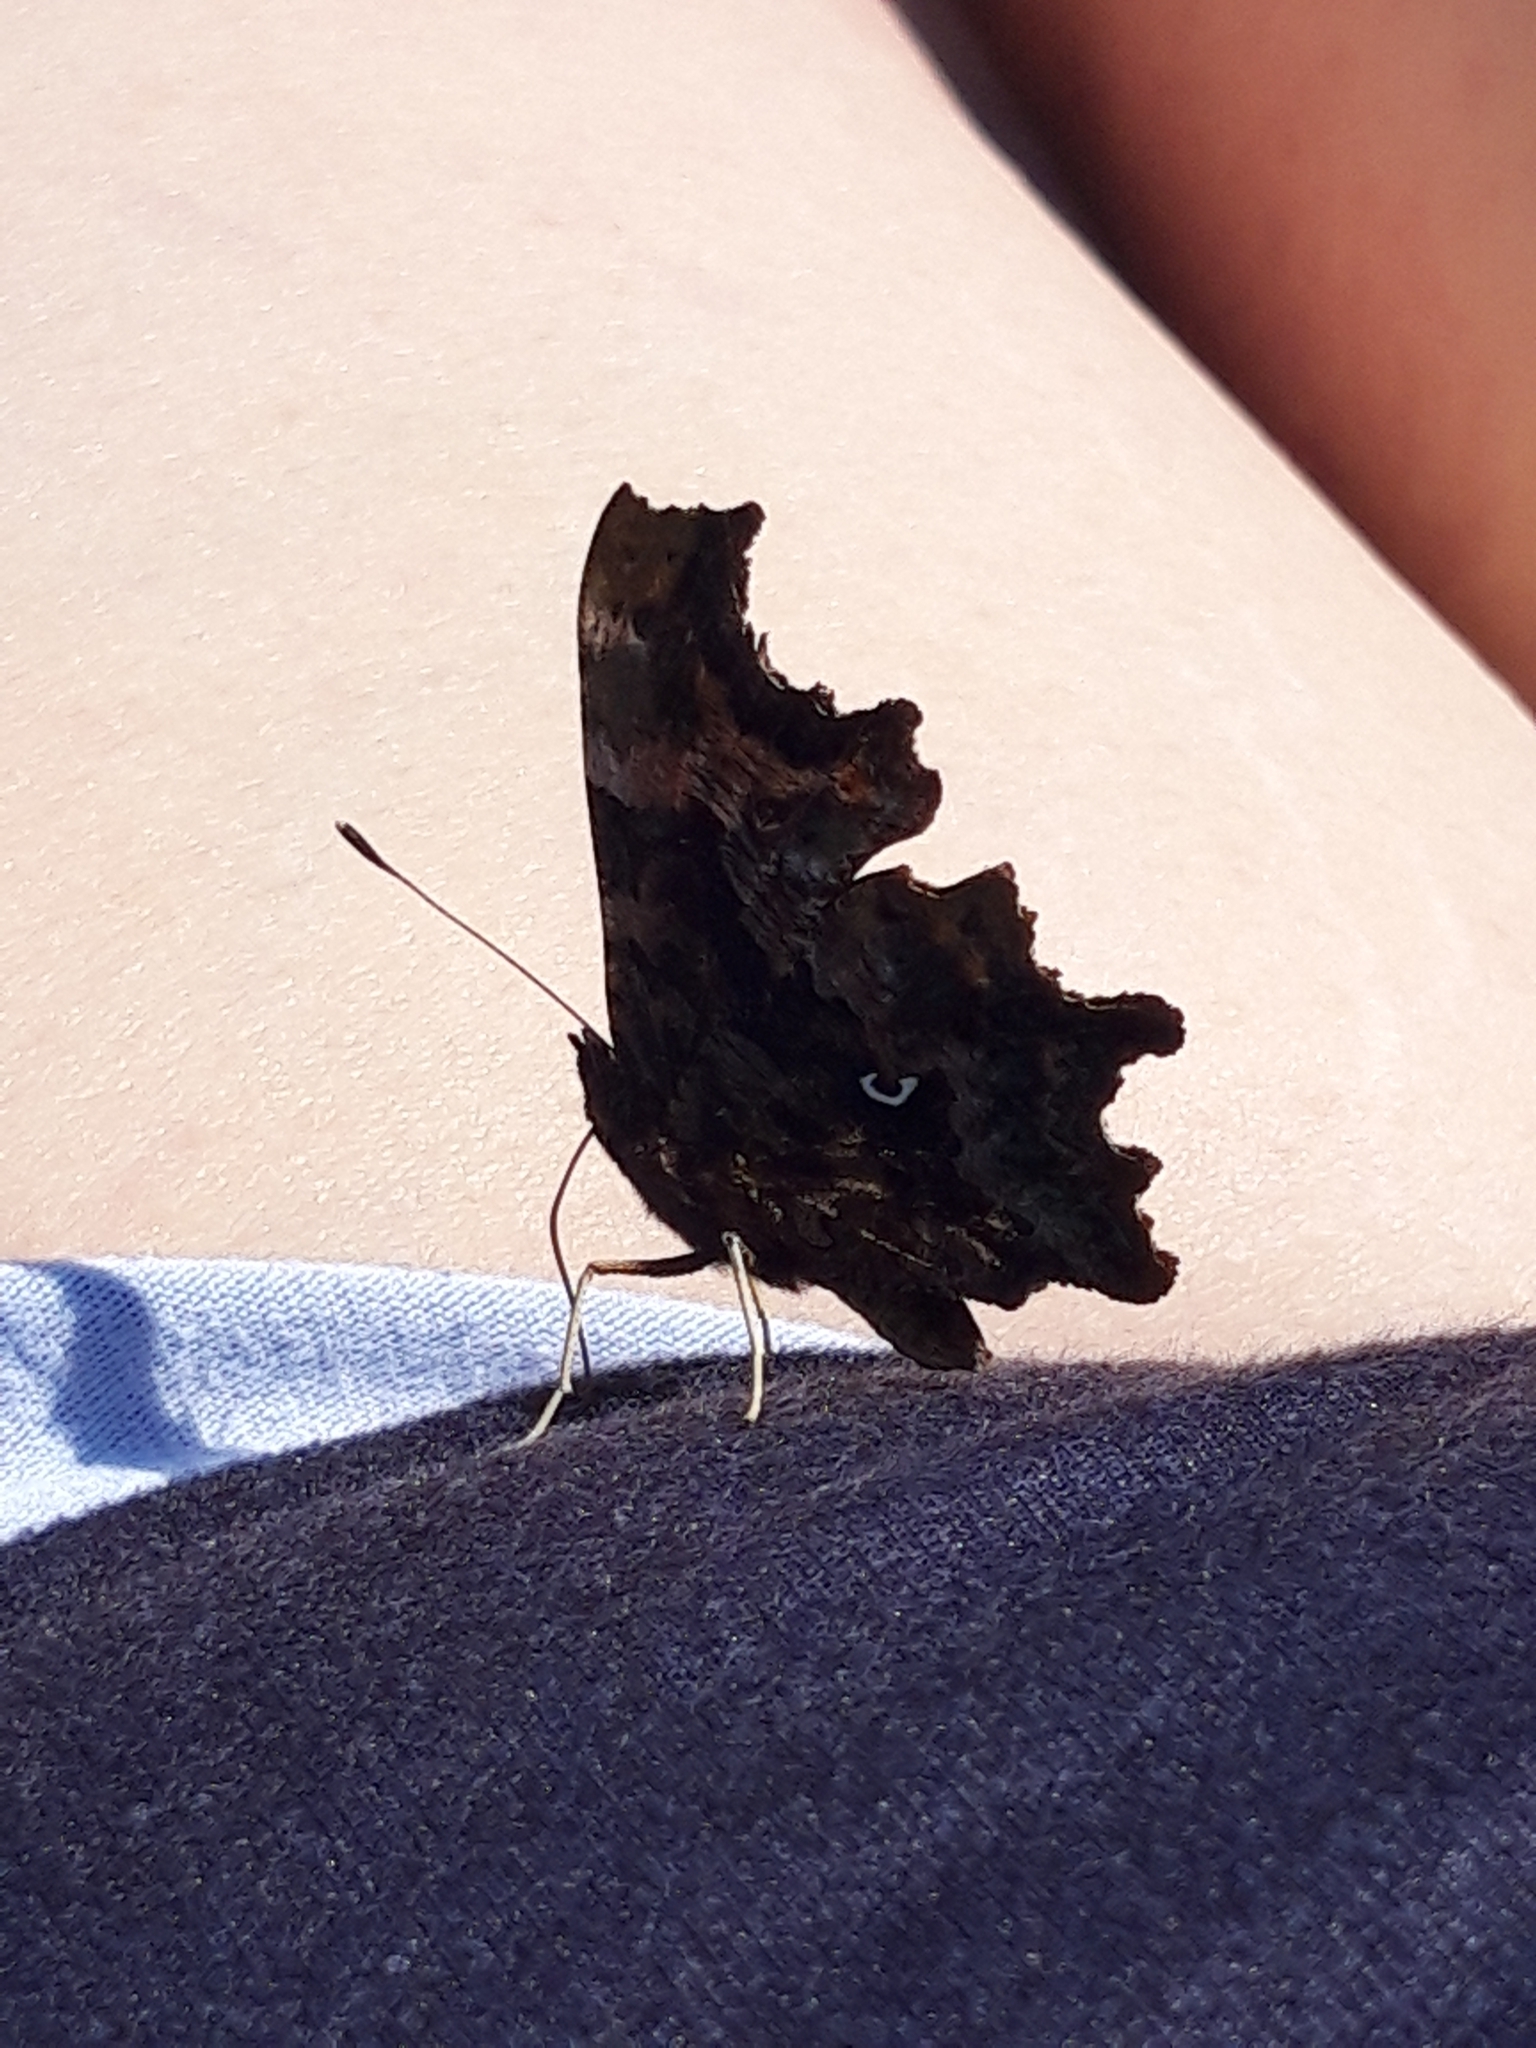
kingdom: Animalia
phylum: Arthropoda
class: Insecta
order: Lepidoptera
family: Nymphalidae
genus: Polygonia
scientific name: Polygonia c-album
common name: Comma
